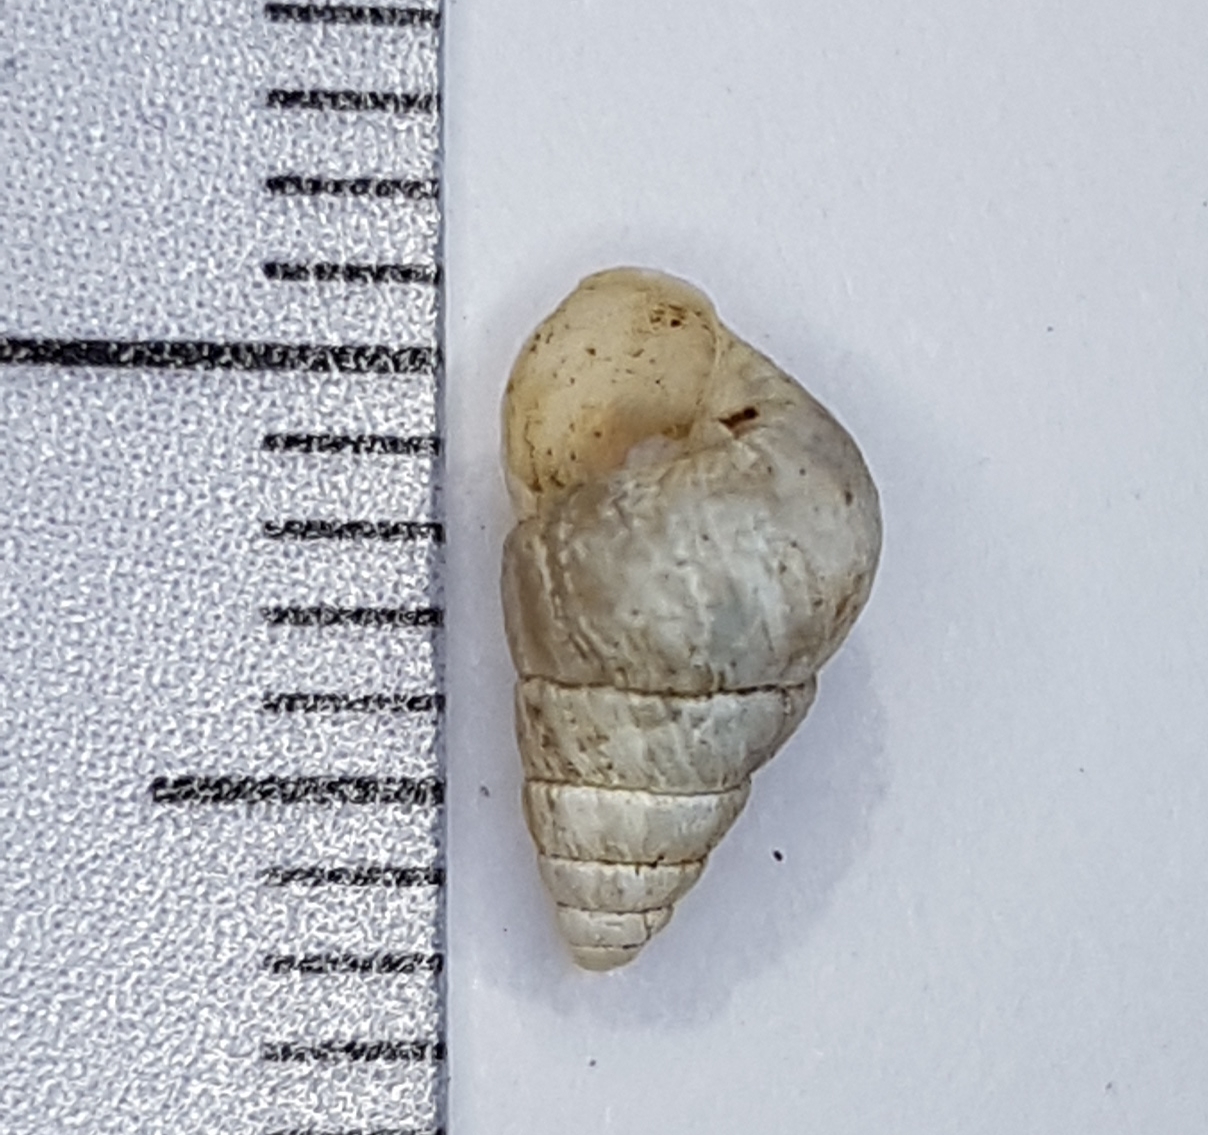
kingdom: Animalia
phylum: Mollusca
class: Gastropoda
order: Stylommatophora
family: Geomitridae
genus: Cochlicella
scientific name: Cochlicella barbara
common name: Potbellied helicellid
